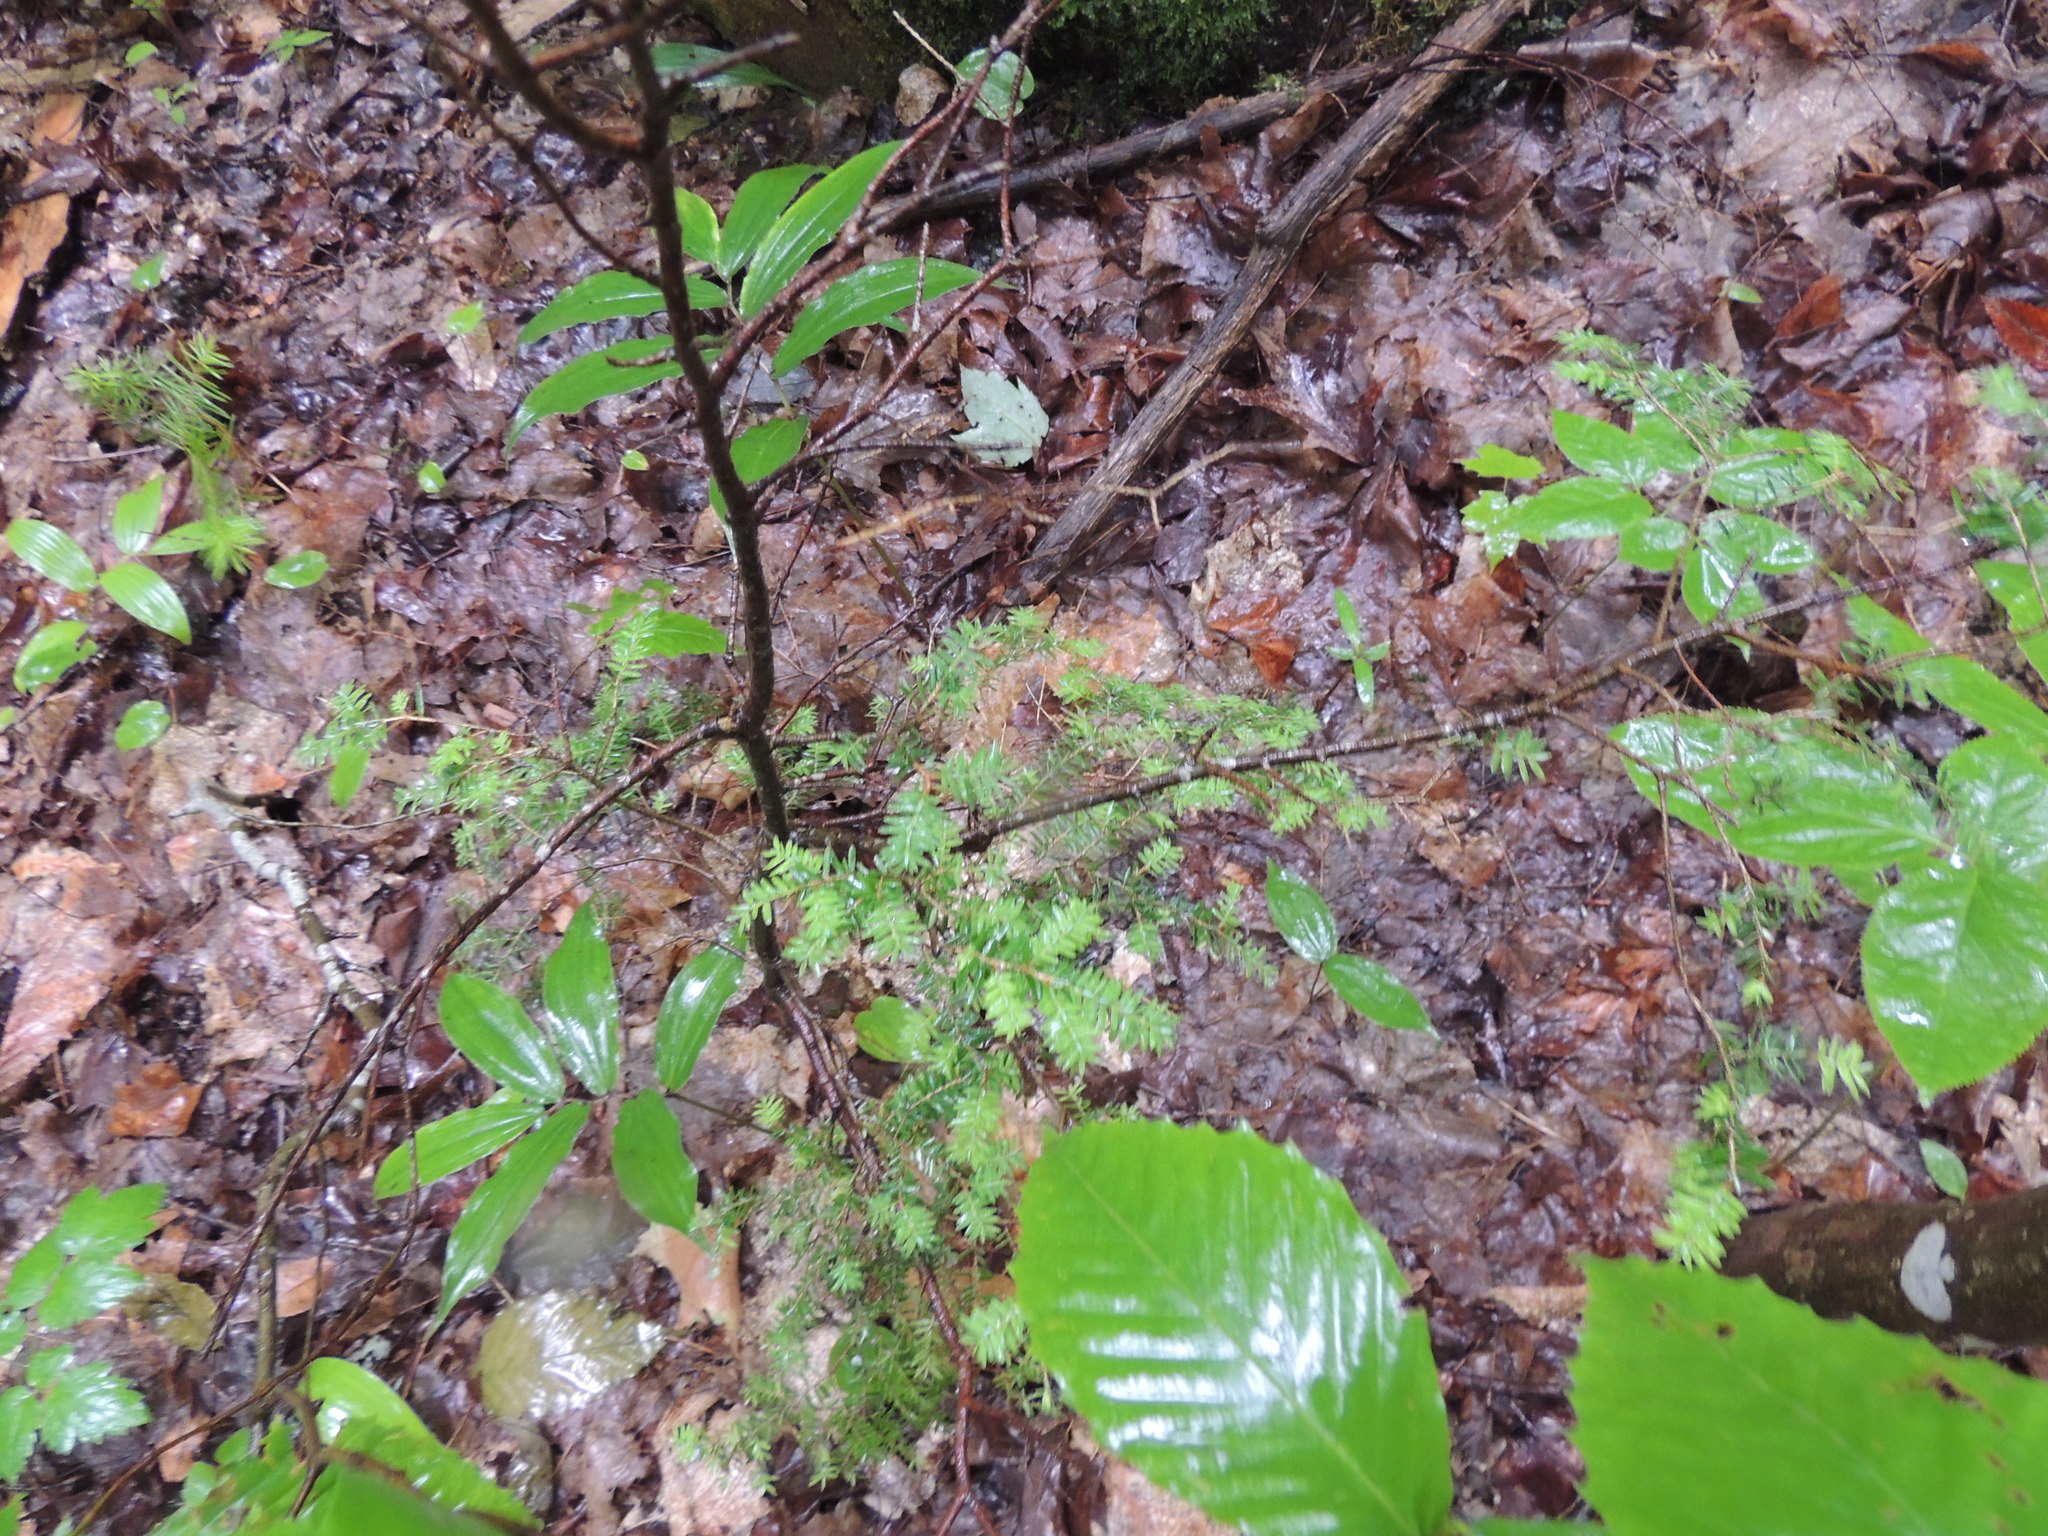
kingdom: Plantae
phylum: Tracheophyta
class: Pinopsida
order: Pinales
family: Pinaceae
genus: Tsuga
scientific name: Tsuga canadensis
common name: Eastern hemlock
